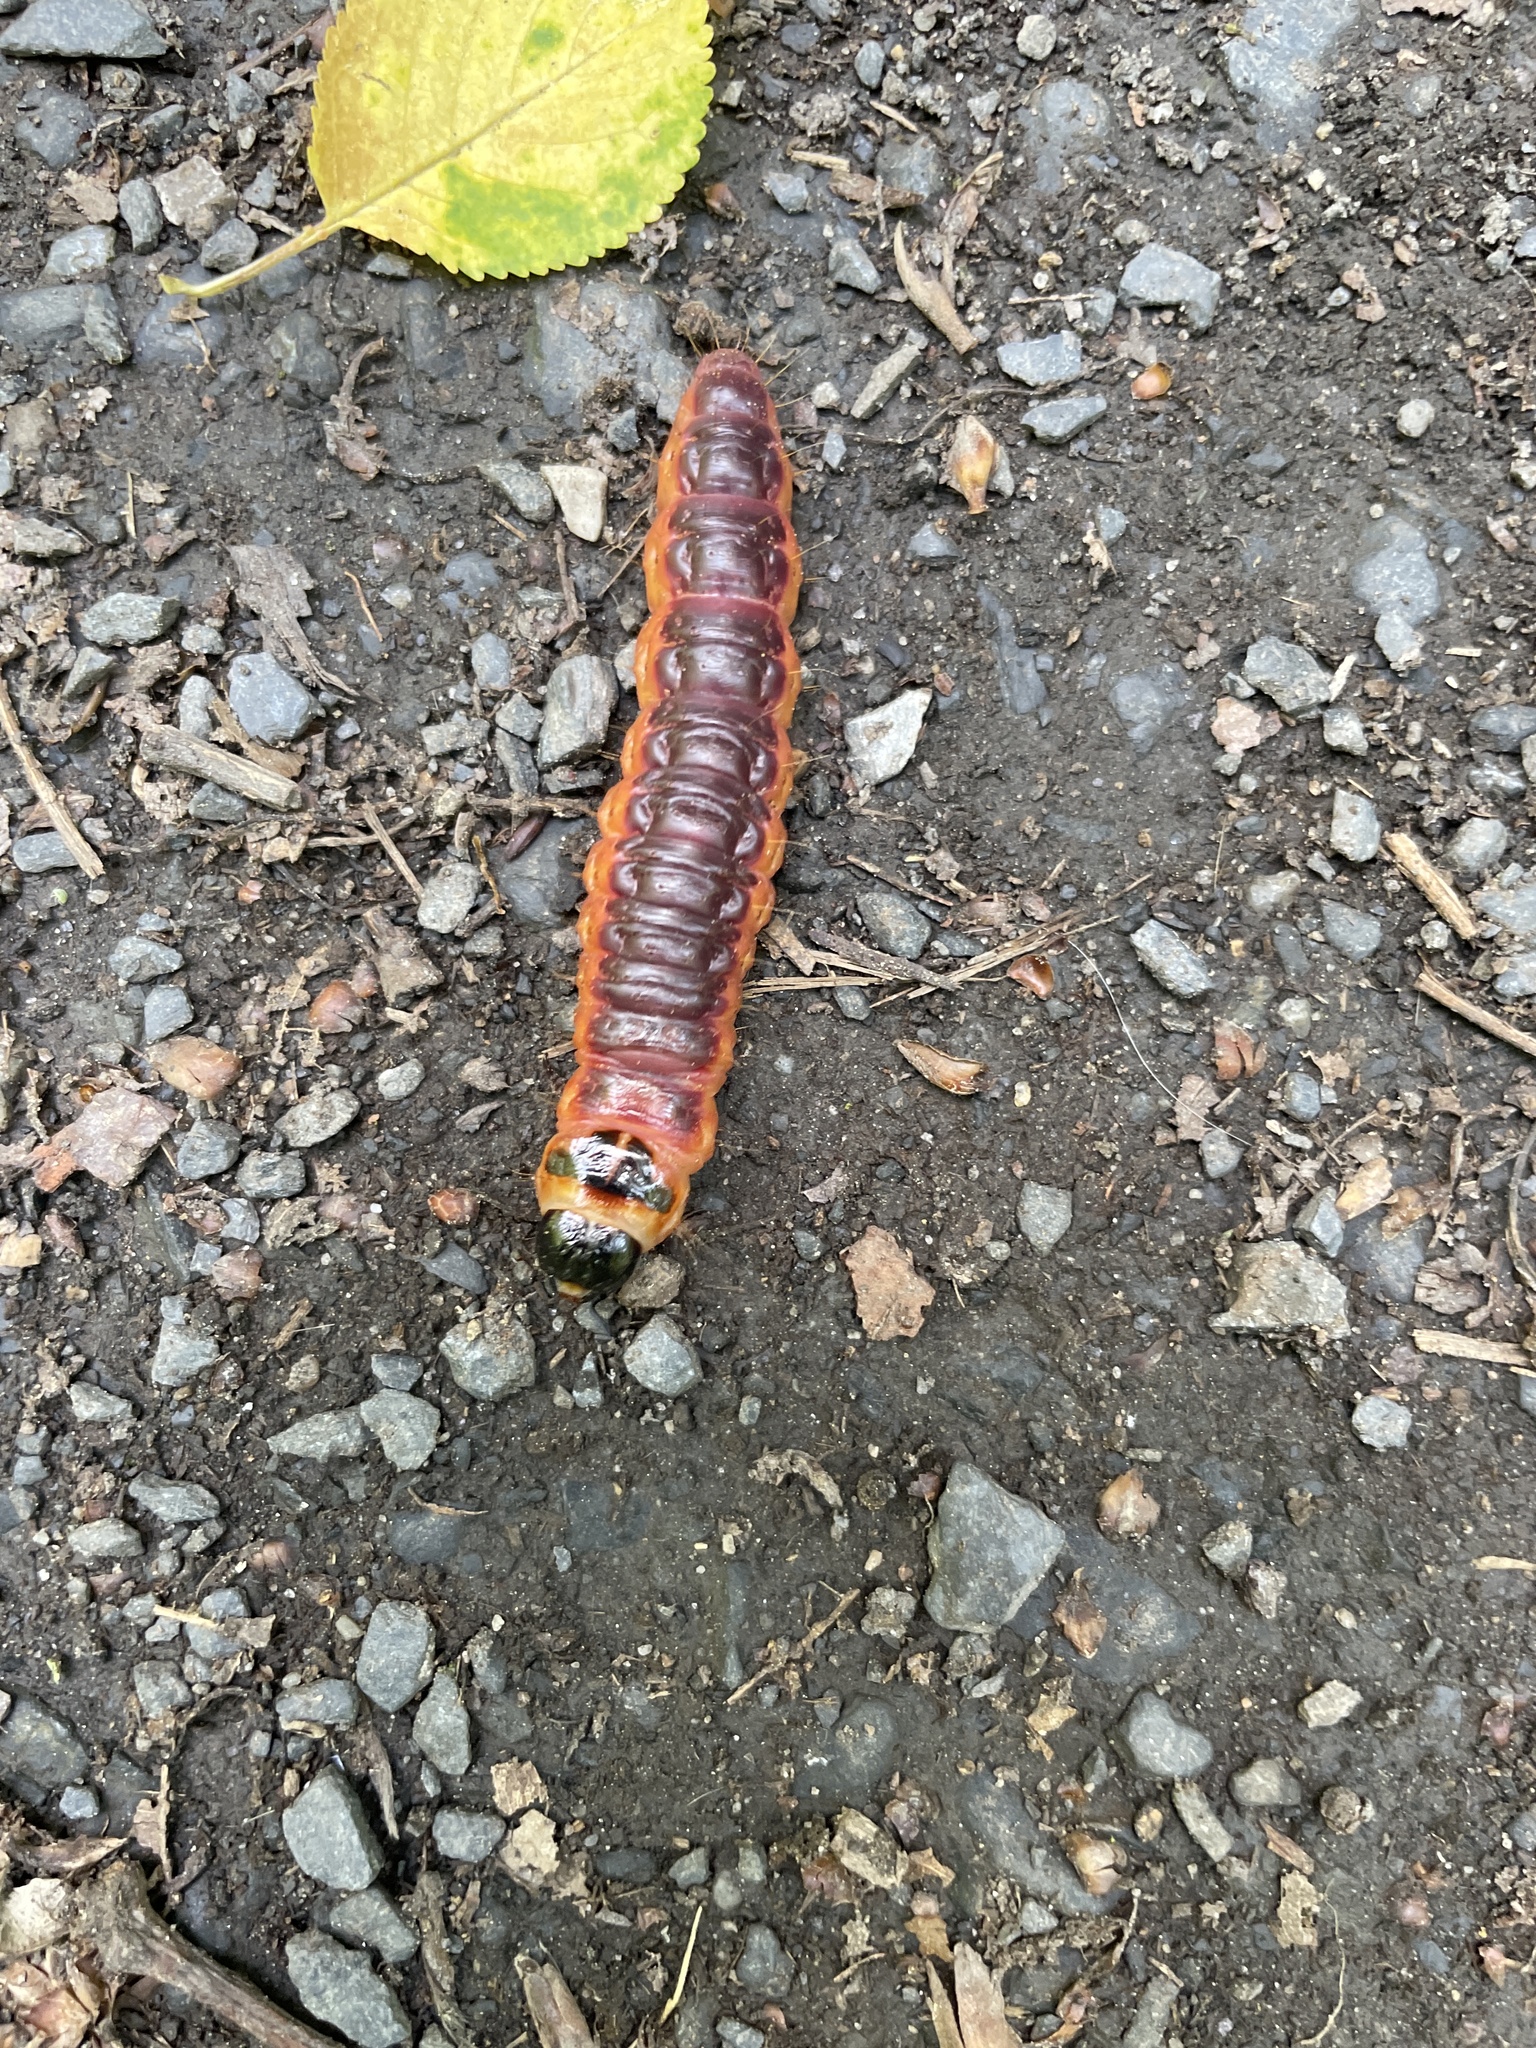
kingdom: Animalia
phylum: Arthropoda
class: Insecta
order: Lepidoptera
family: Cossidae
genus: Cossus
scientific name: Cossus cossus
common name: Goat moth
